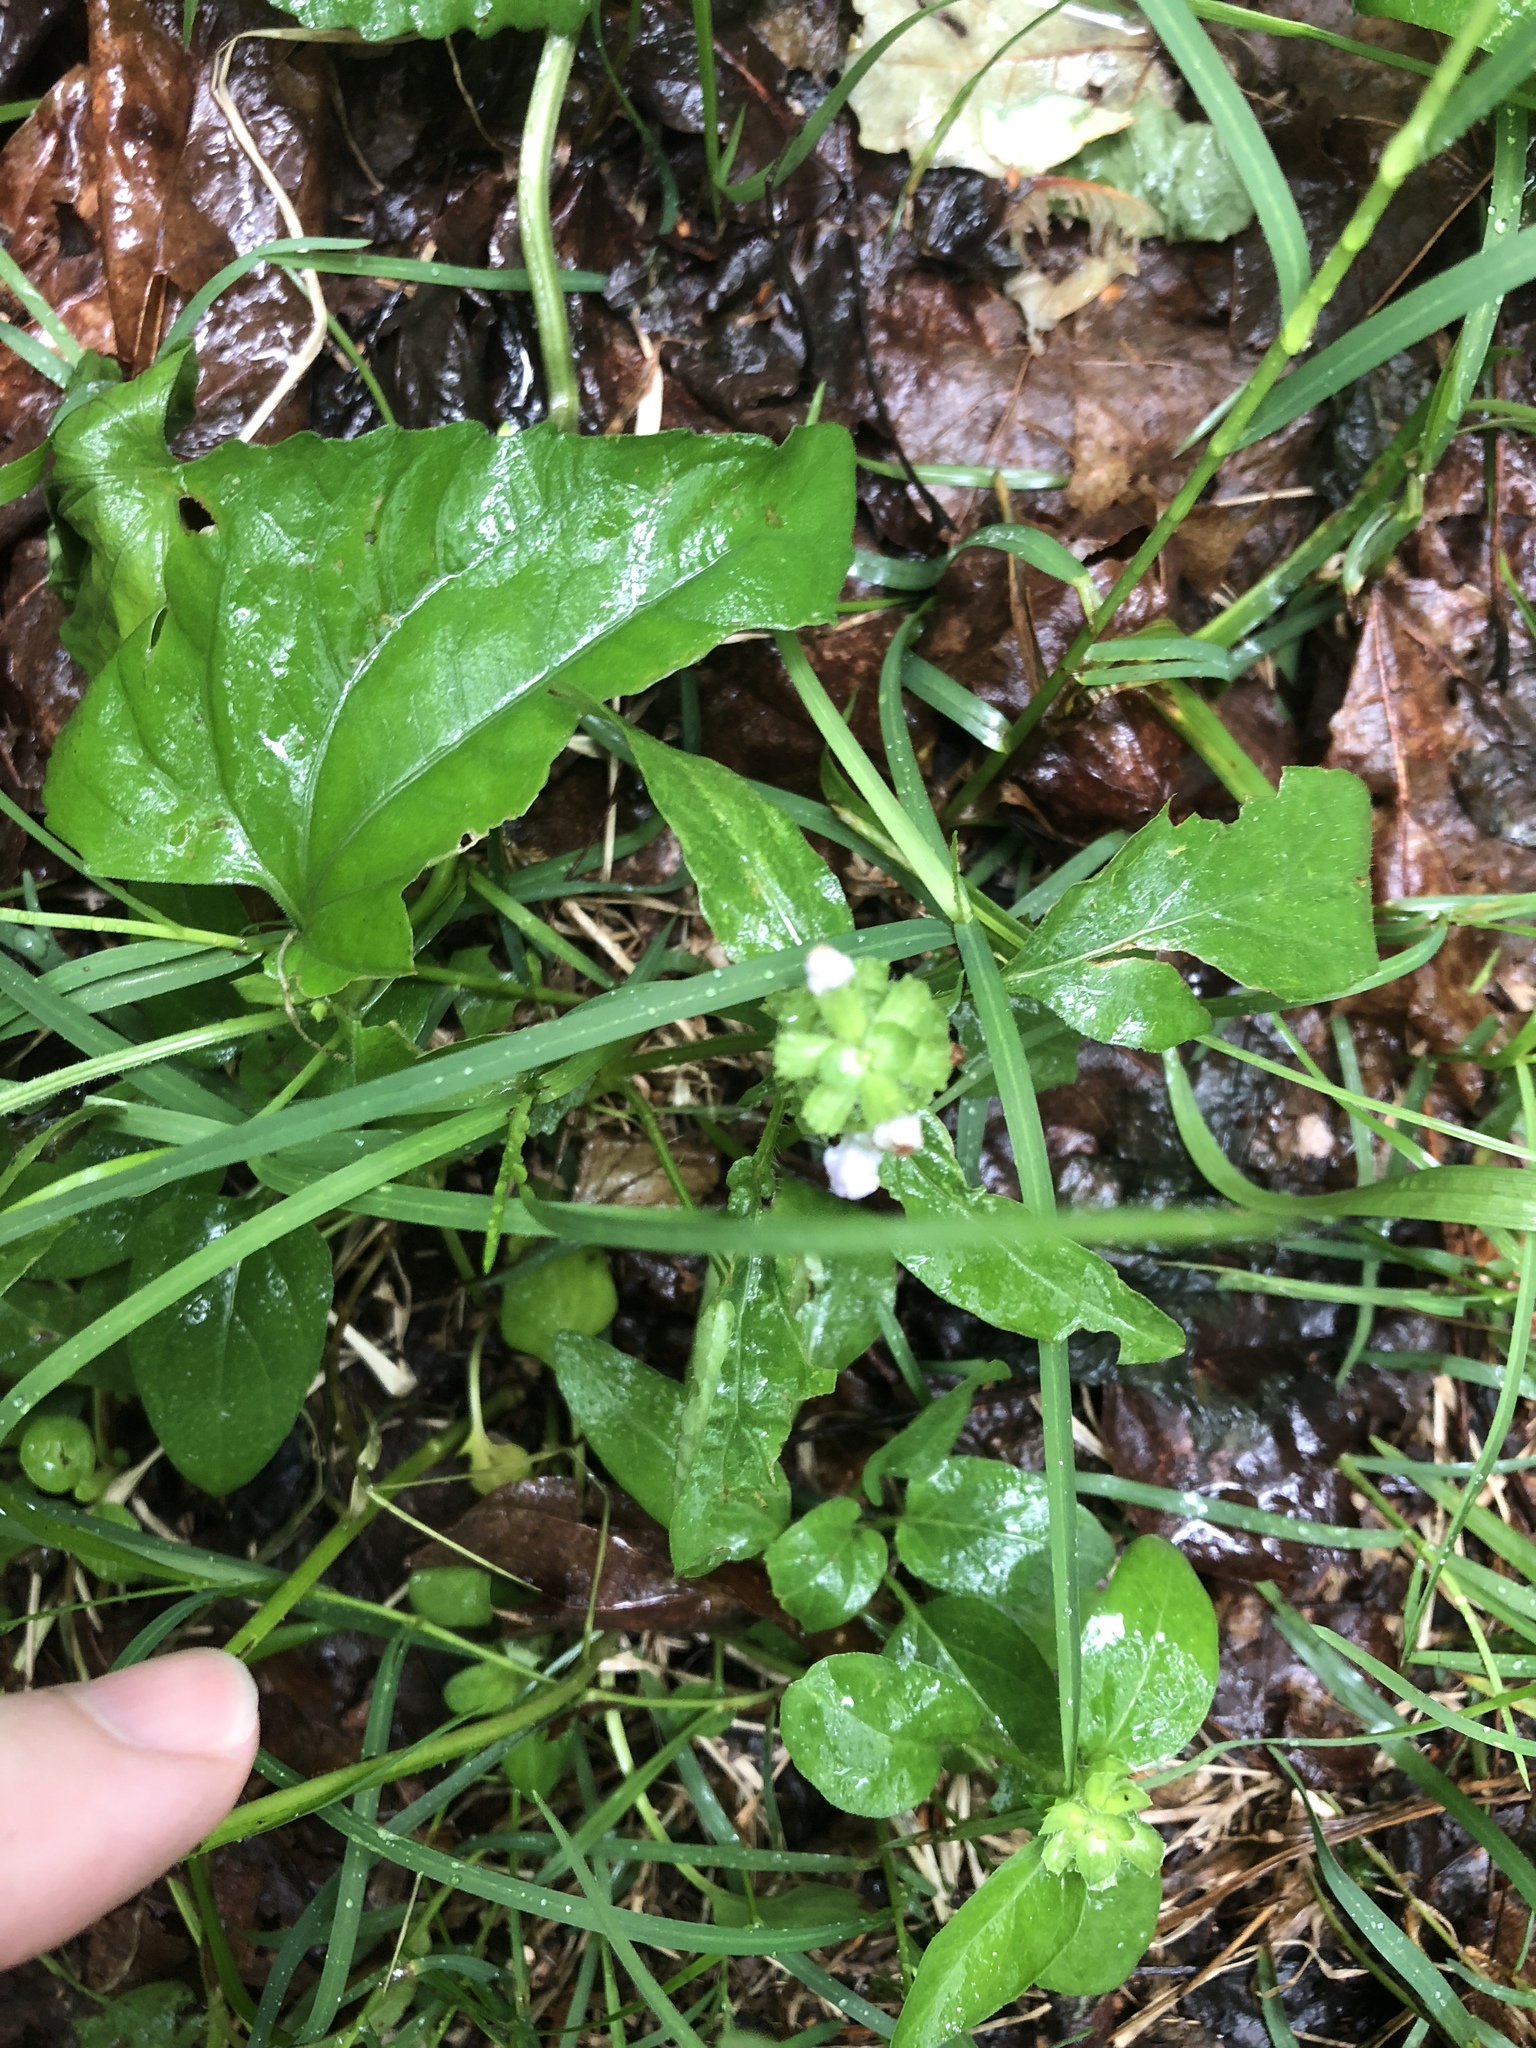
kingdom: Plantae
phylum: Tracheophyta
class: Magnoliopsida
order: Lamiales
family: Lamiaceae
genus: Prunella
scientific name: Prunella vulgaris
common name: Heal-all
